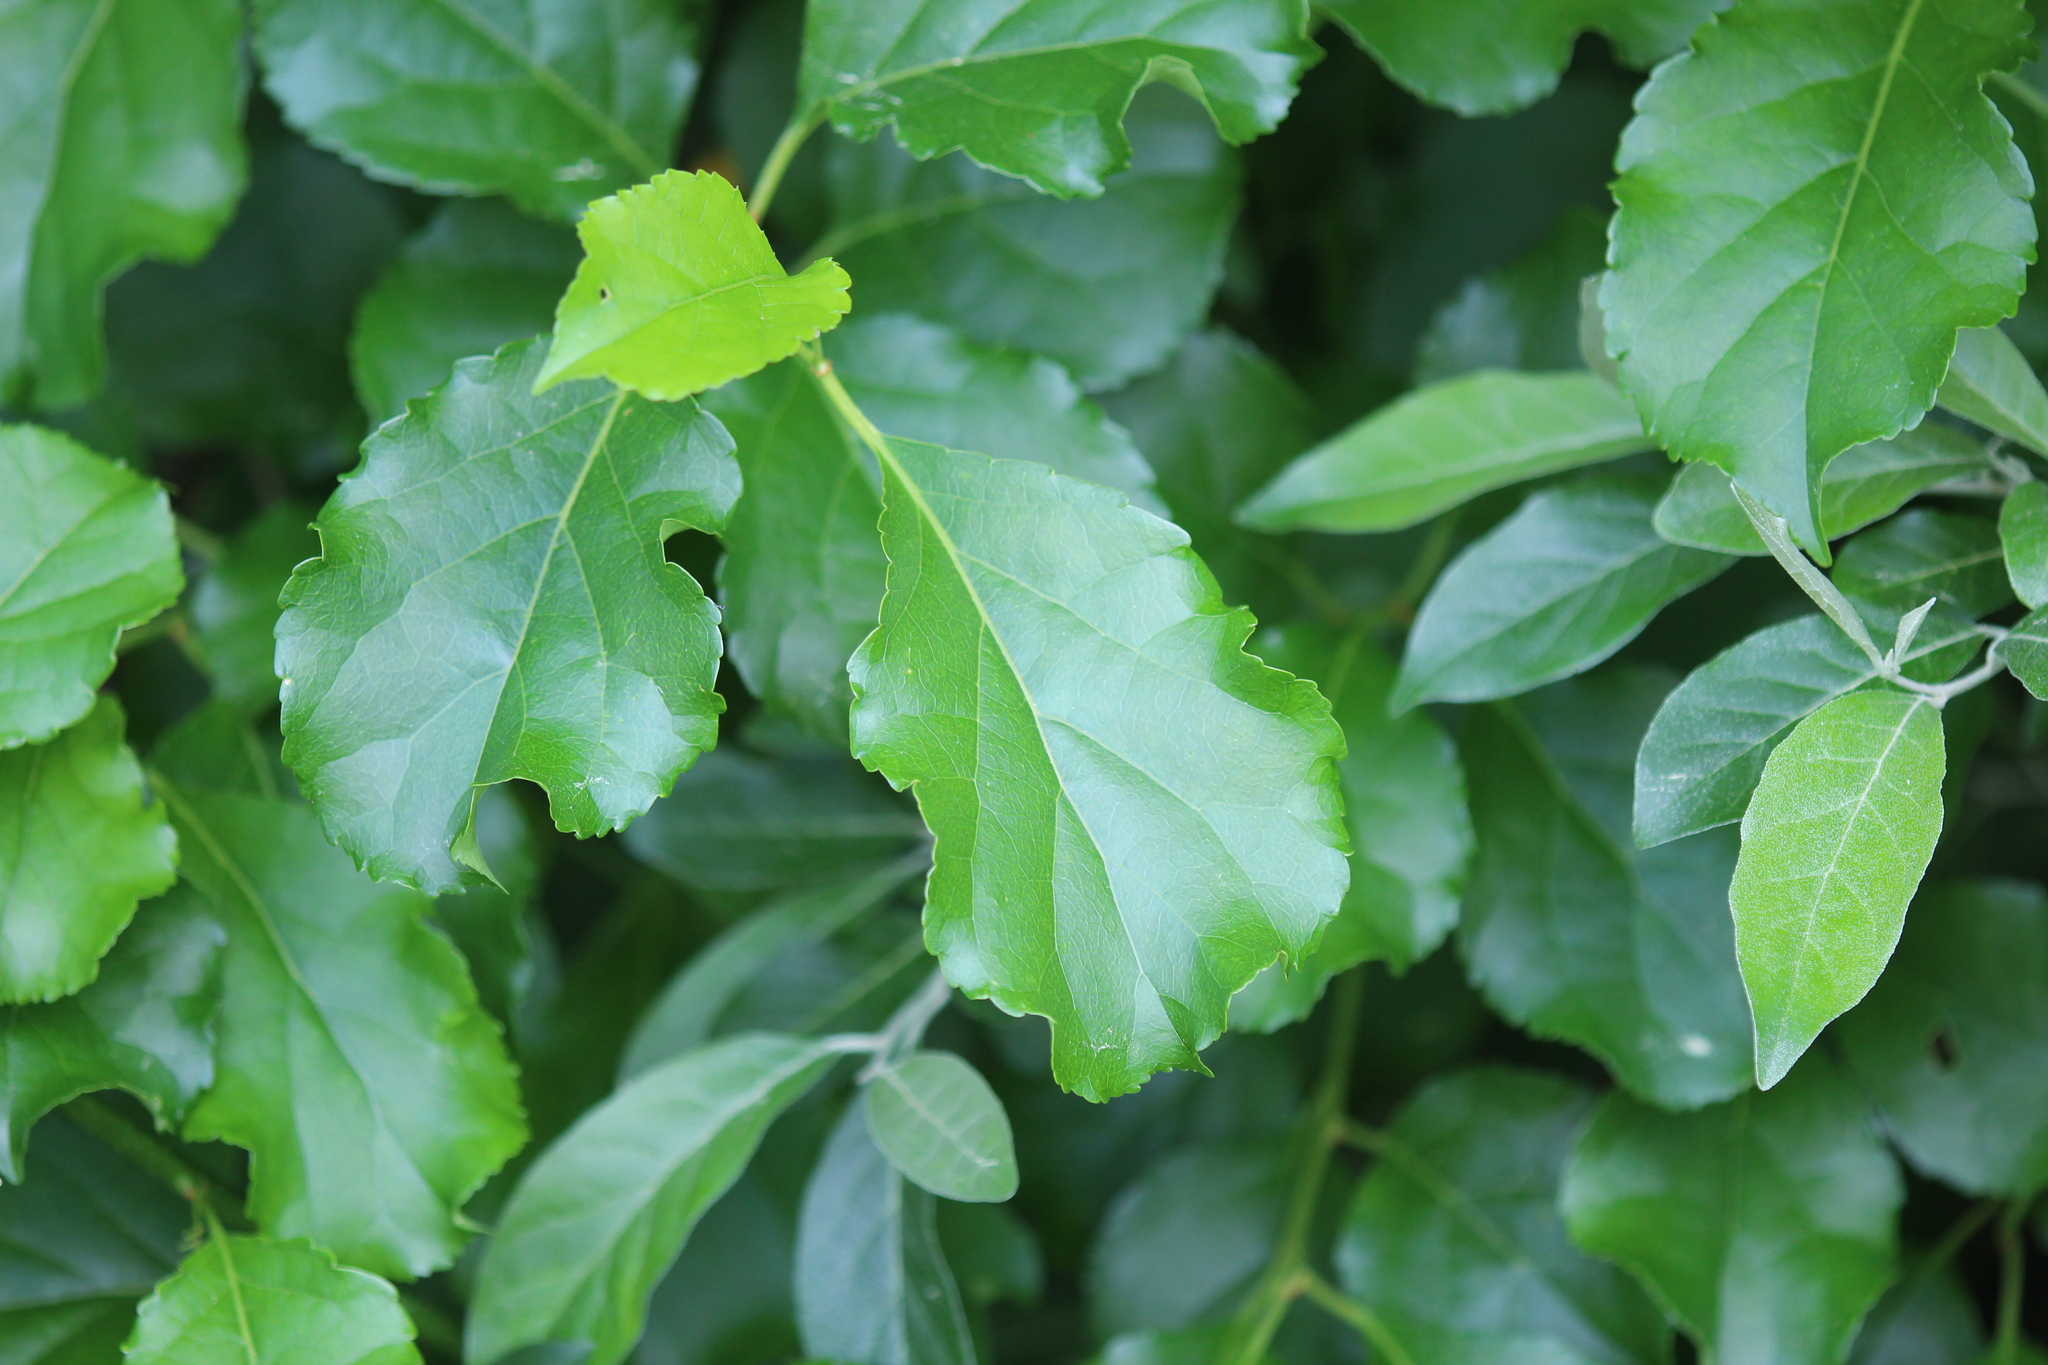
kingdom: Plantae
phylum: Tracheophyta
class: Magnoliopsida
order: Celastrales
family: Celastraceae
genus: Celastrus
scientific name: Celastrus orbiculatus
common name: Oriental bittersweet
